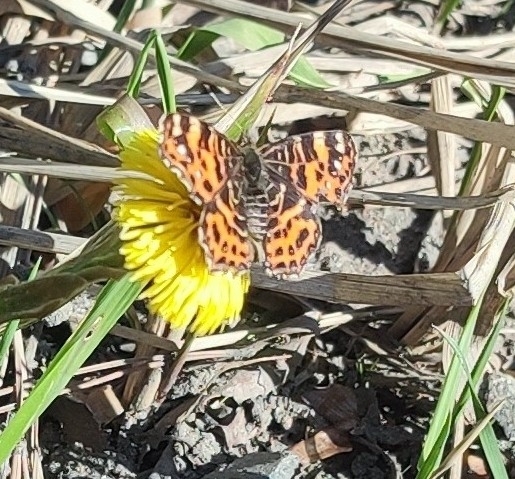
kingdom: Animalia
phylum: Arthropoda
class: Insecta
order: Lepidoptera
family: Nymphalidae
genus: Araschnia
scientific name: Araschnia levana
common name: Map butterfly
